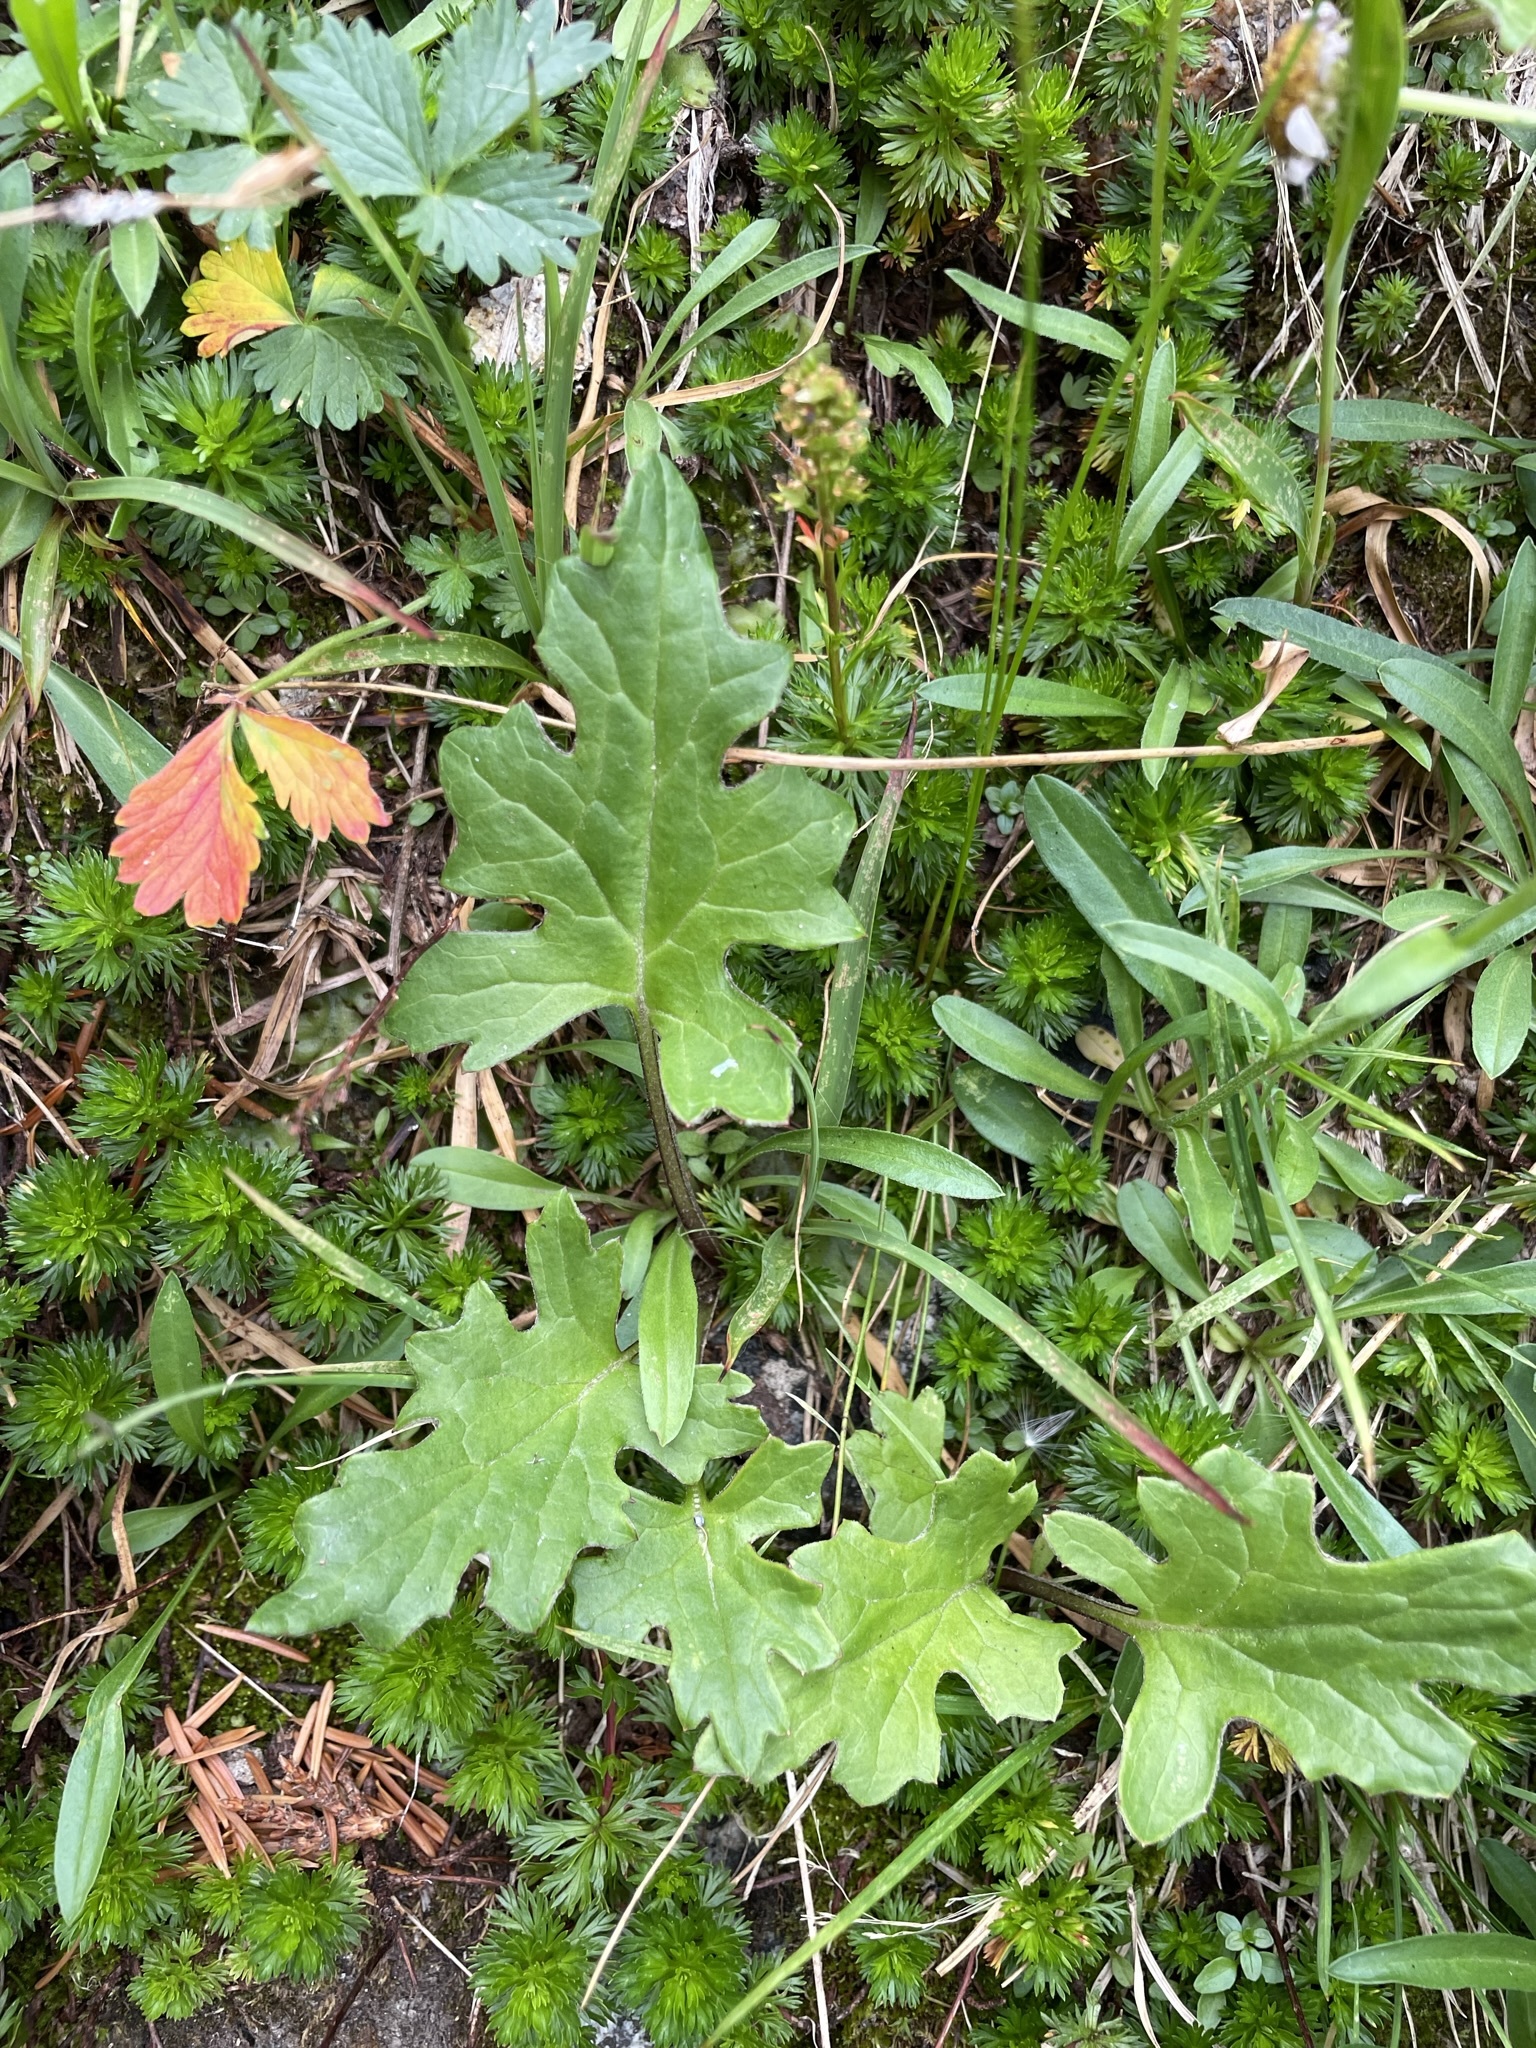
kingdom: Plantae
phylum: Tracheophyta
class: Magnoliopsida
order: Asterales
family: Asteraceae
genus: Petasites
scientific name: Petasites frigidus
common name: Arctic butterbur
